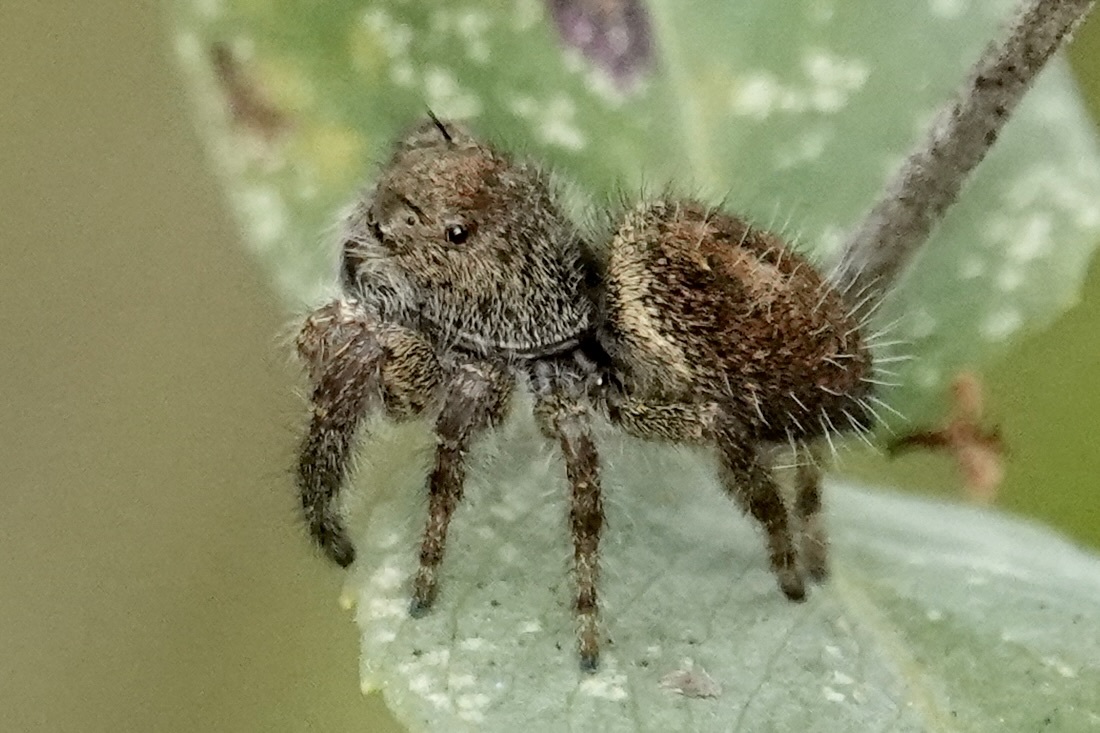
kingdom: Animalia
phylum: Arthropoda
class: Arachnida
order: Araneae
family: Salticidae
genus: Phidippus
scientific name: Phidippus princeps
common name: Grayish jumping spider
